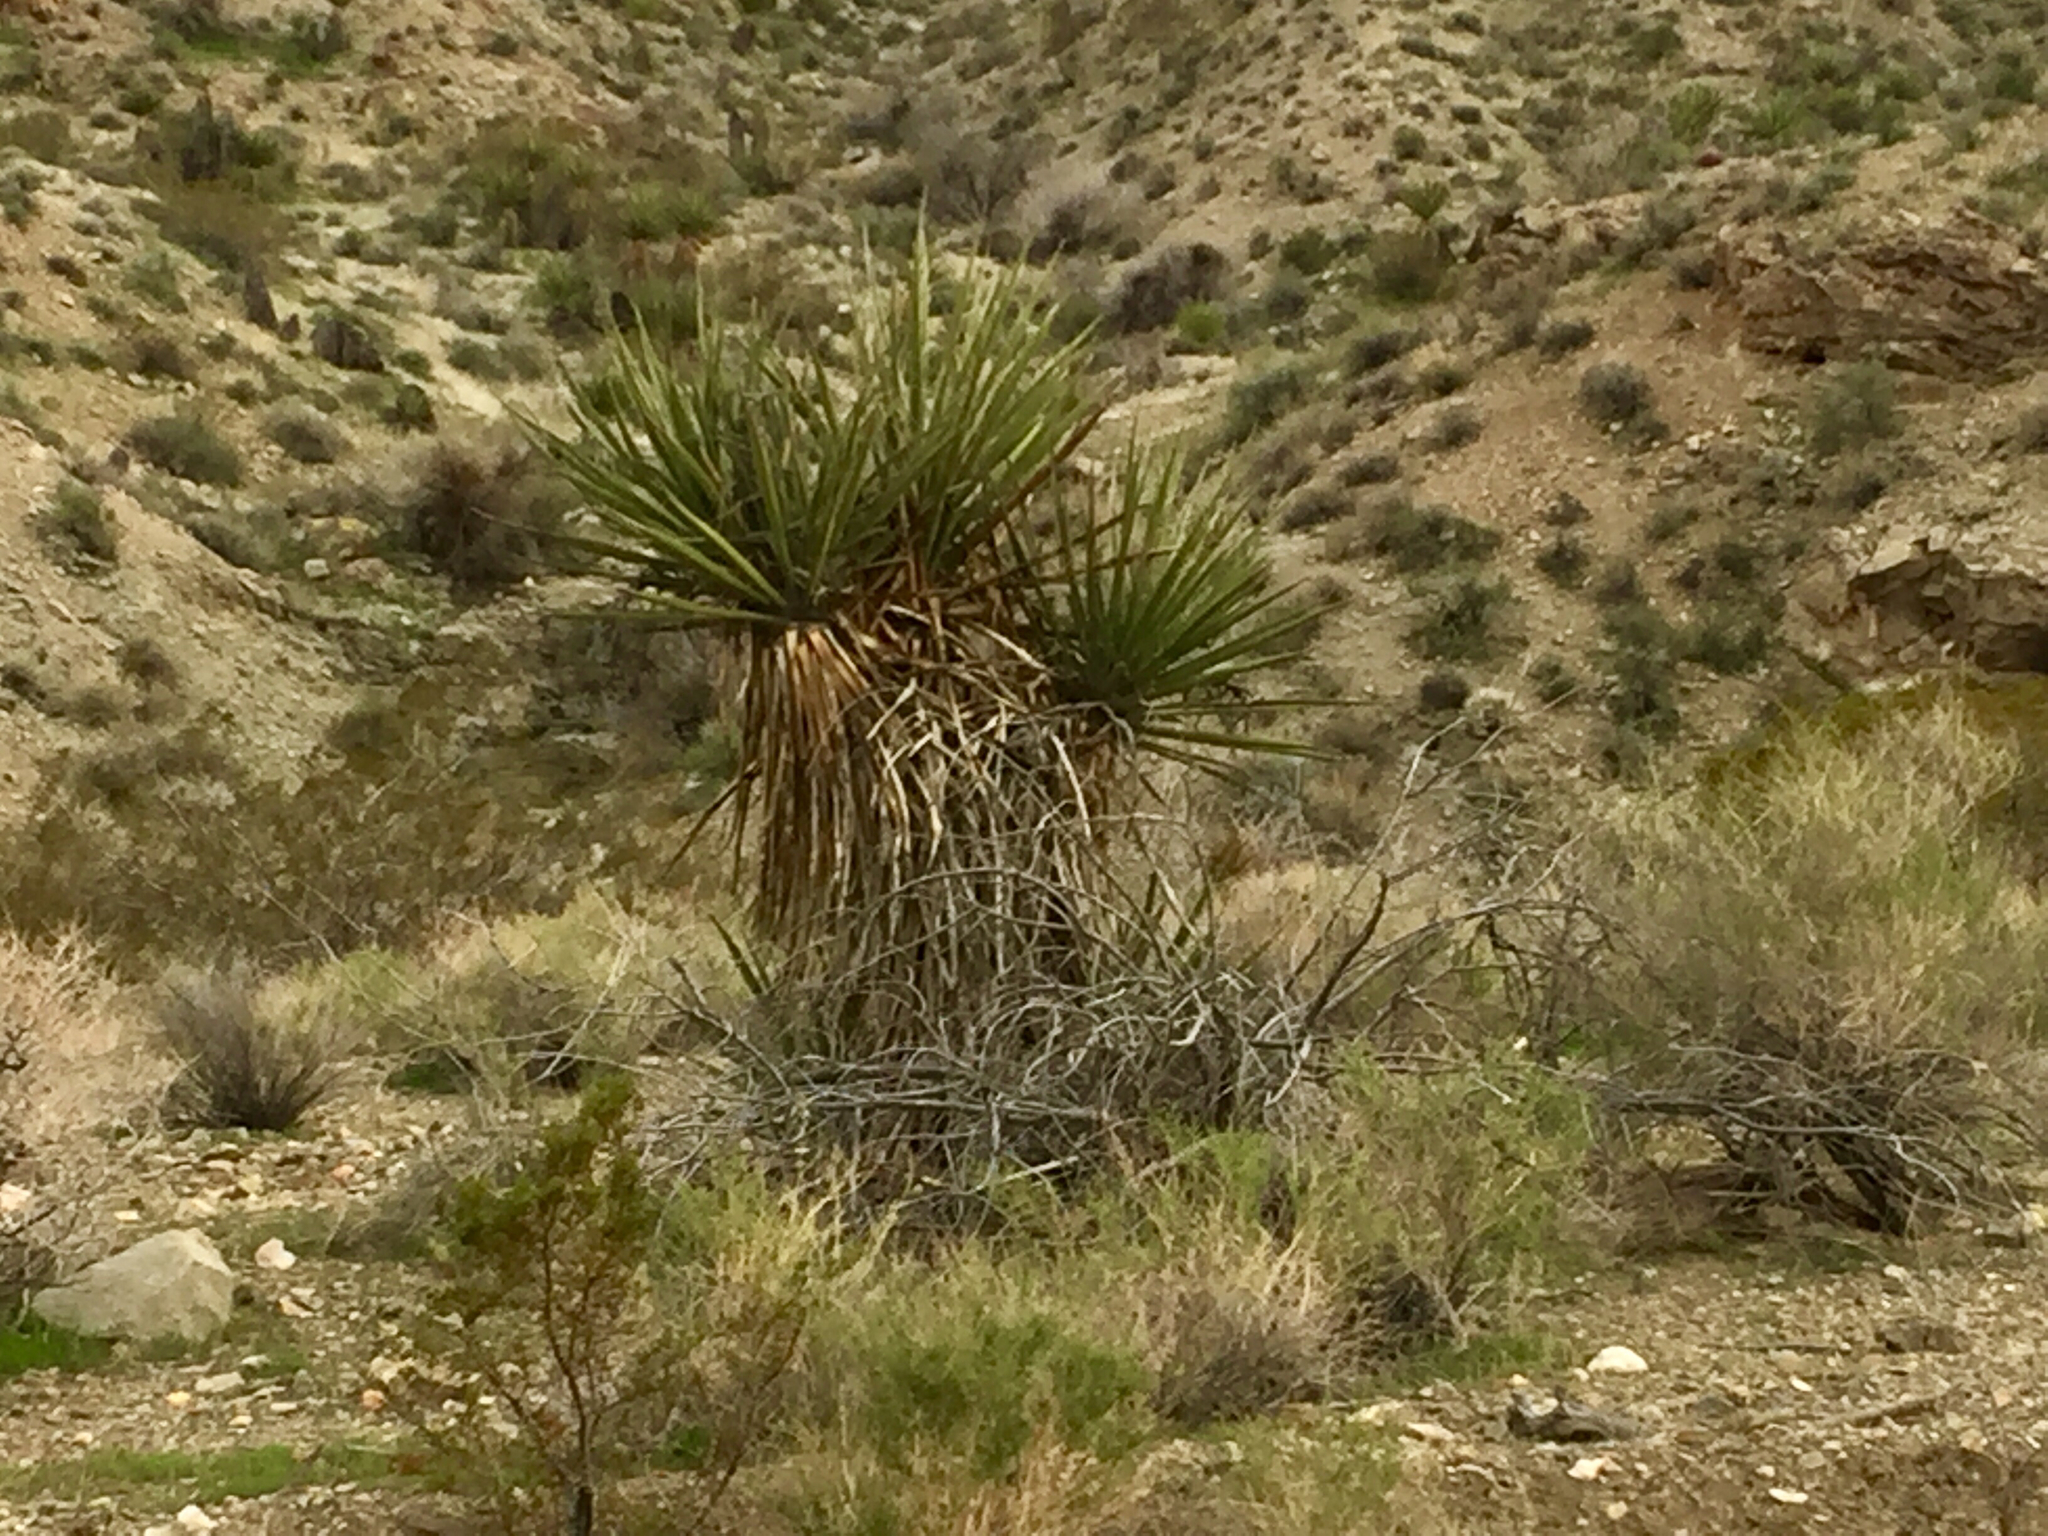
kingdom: Plantae
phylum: Tracheophyta
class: Liliopsida
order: Asparagales
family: Asparagaceae
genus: Yucca
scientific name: Yucca schidigera
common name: Mojave yucca
